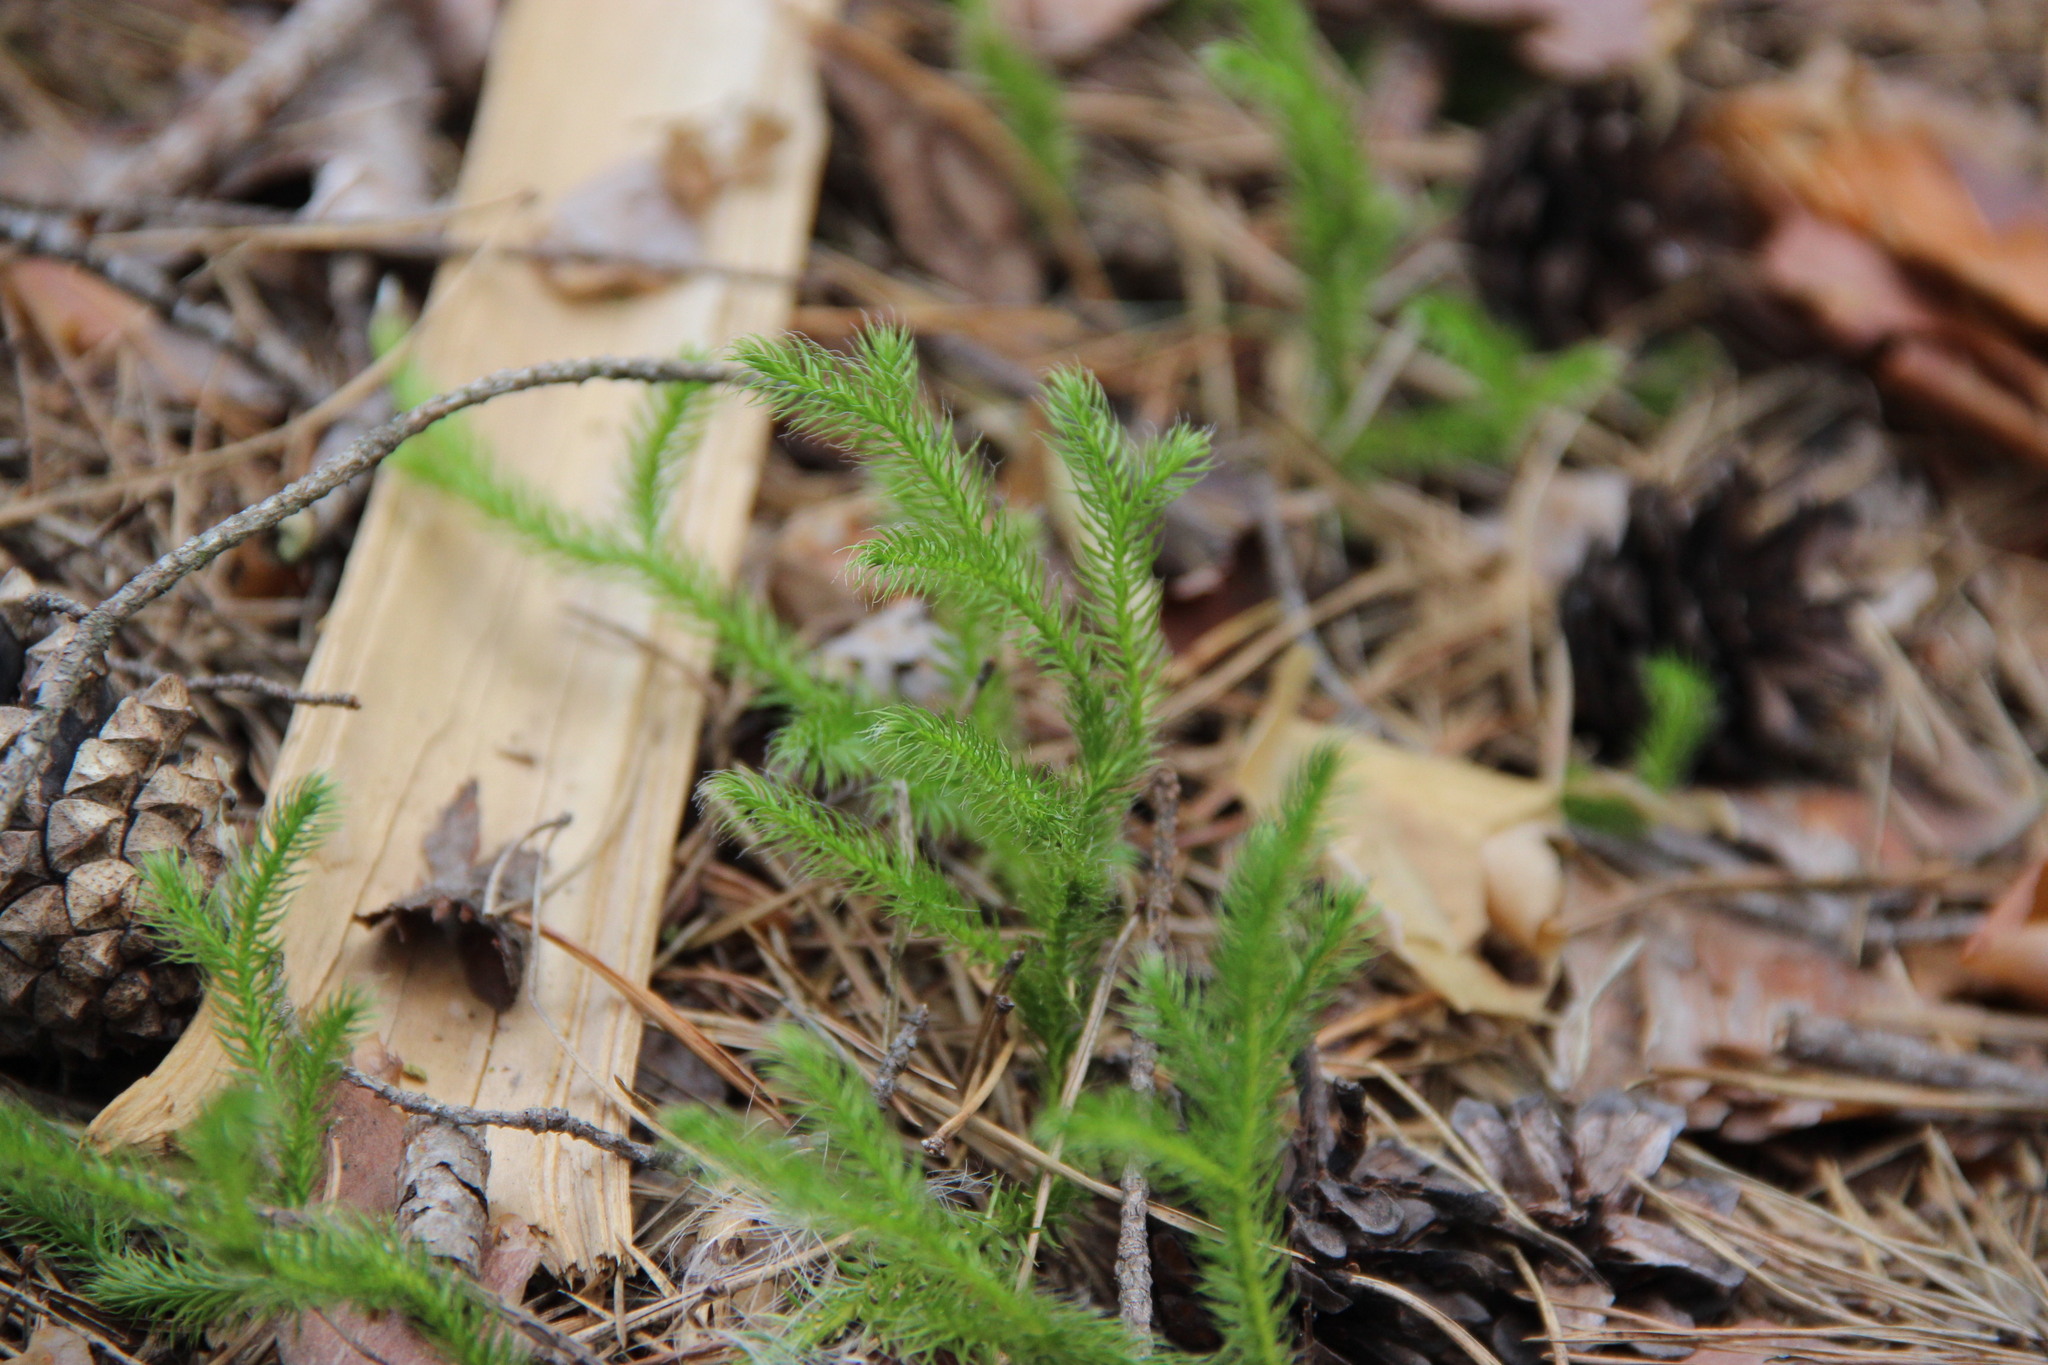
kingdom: Plantae
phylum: Tracheophyta
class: Lycopodiopsida
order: Lycopodiales
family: Lycopodiaceae
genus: Lycopodium
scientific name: Lycopodium clavatum
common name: Stag's-horn clubmoss
